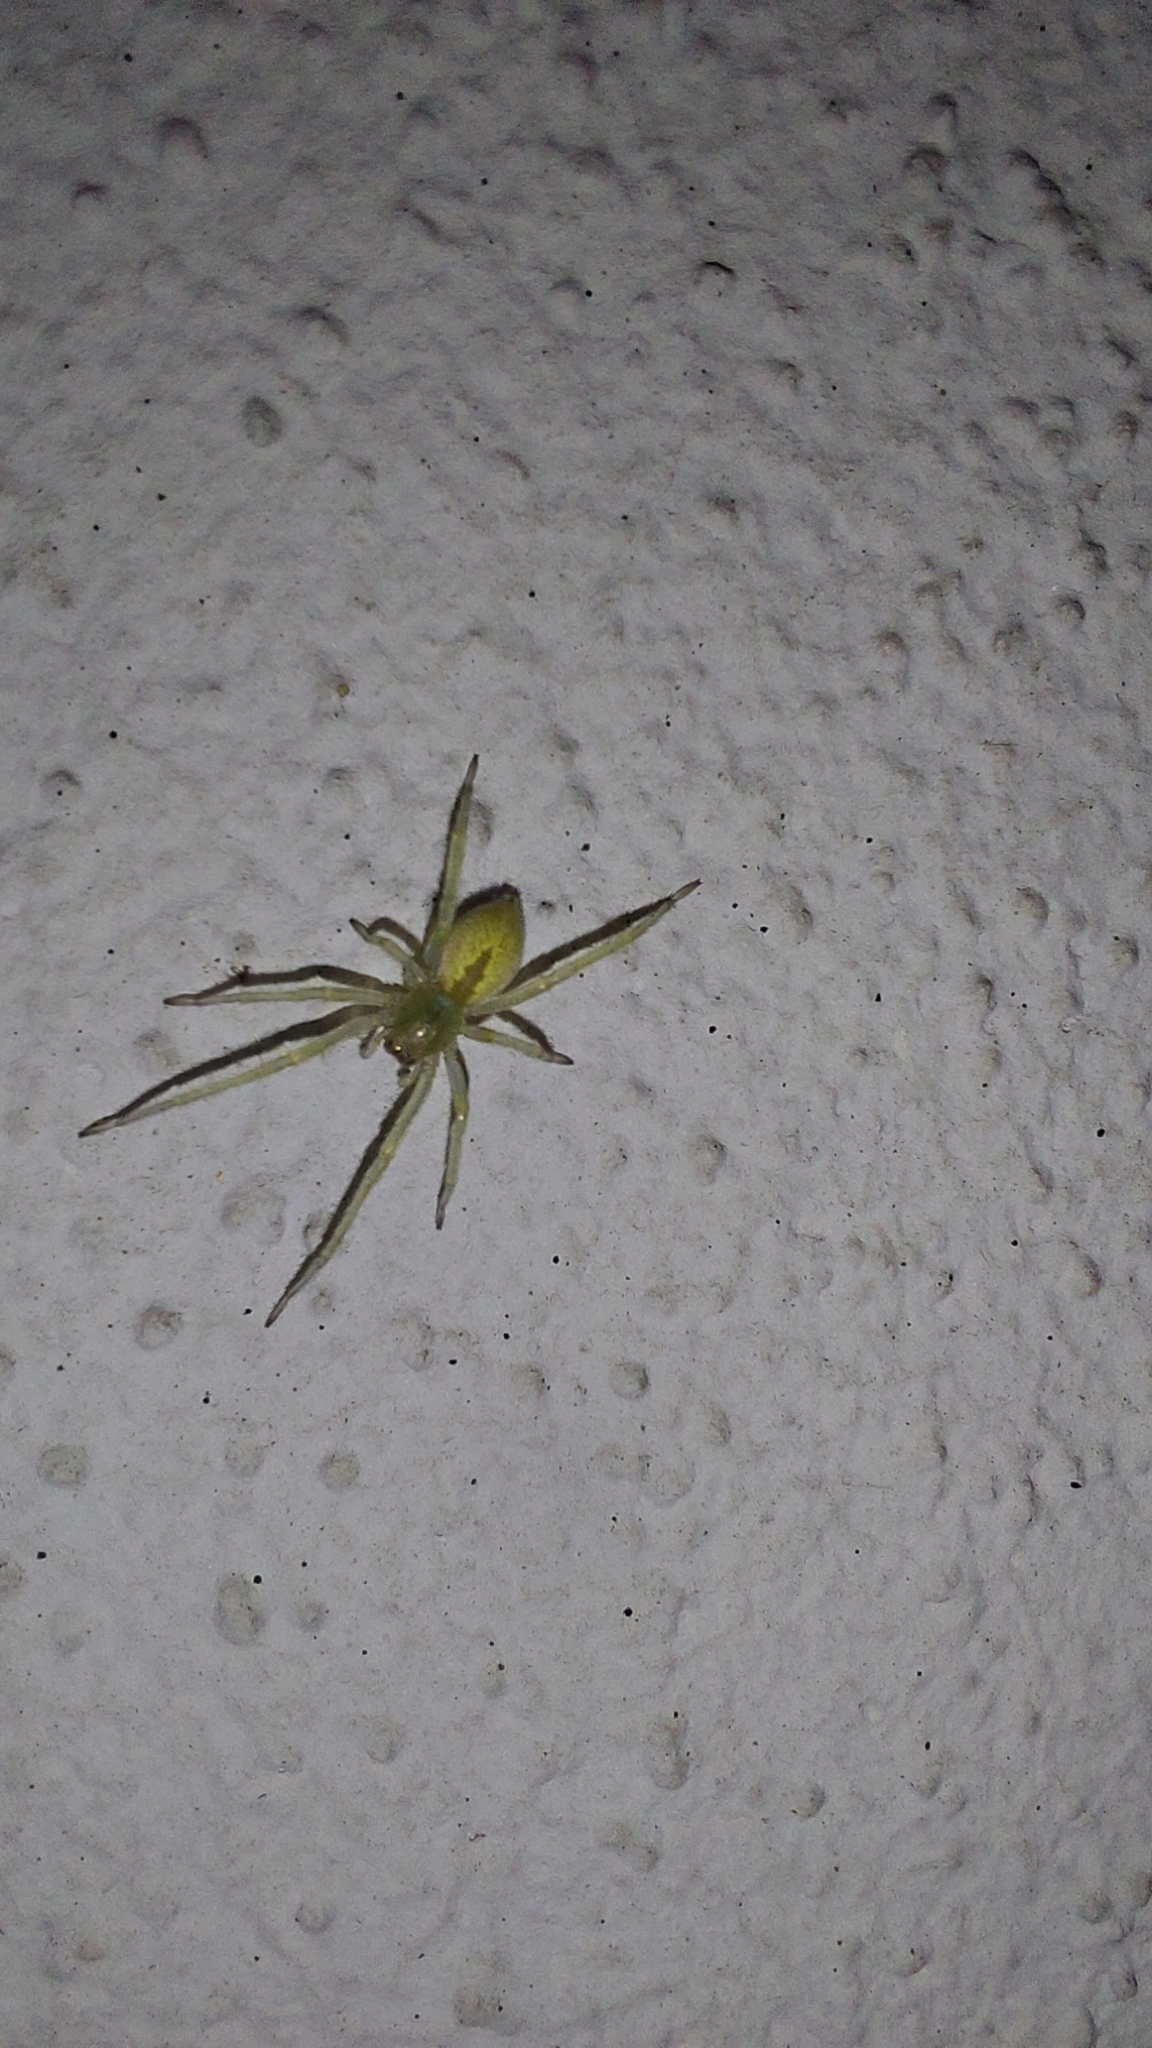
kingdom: Animalia
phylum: Arthropoda
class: Arachnida
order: Araneae
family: Cheiracanthiidae
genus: Cheiracanthium
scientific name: Cheiracanthium mildei
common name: Northern yellow sac spider
